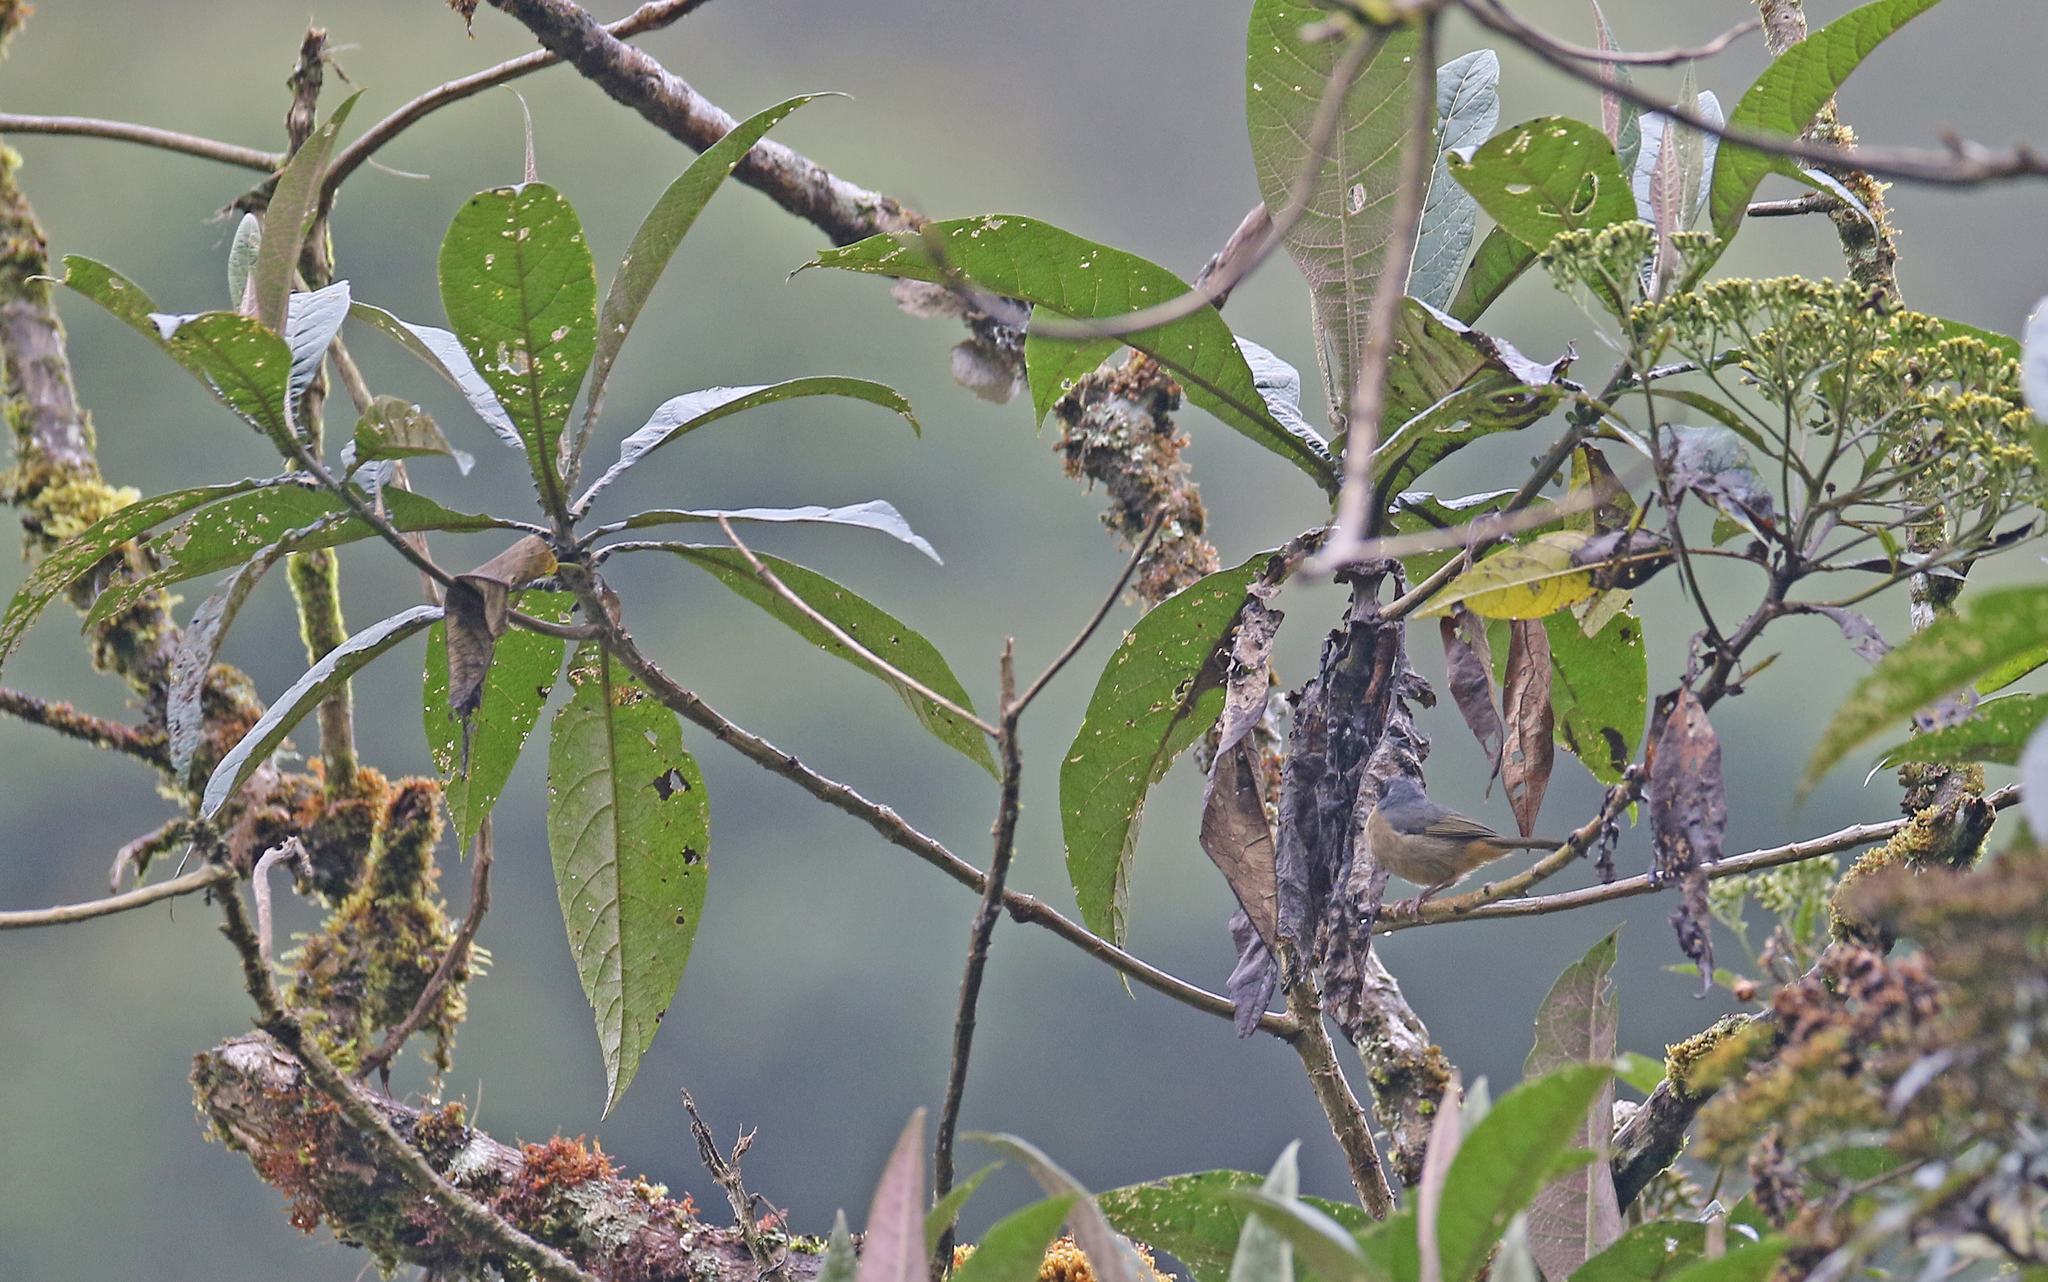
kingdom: Animalia
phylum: Chordata
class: Aves
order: Passeriformes
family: Thraupidae
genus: Sphenopsis
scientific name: Sphenopsis melanotis
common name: Black-eared hemispingus
